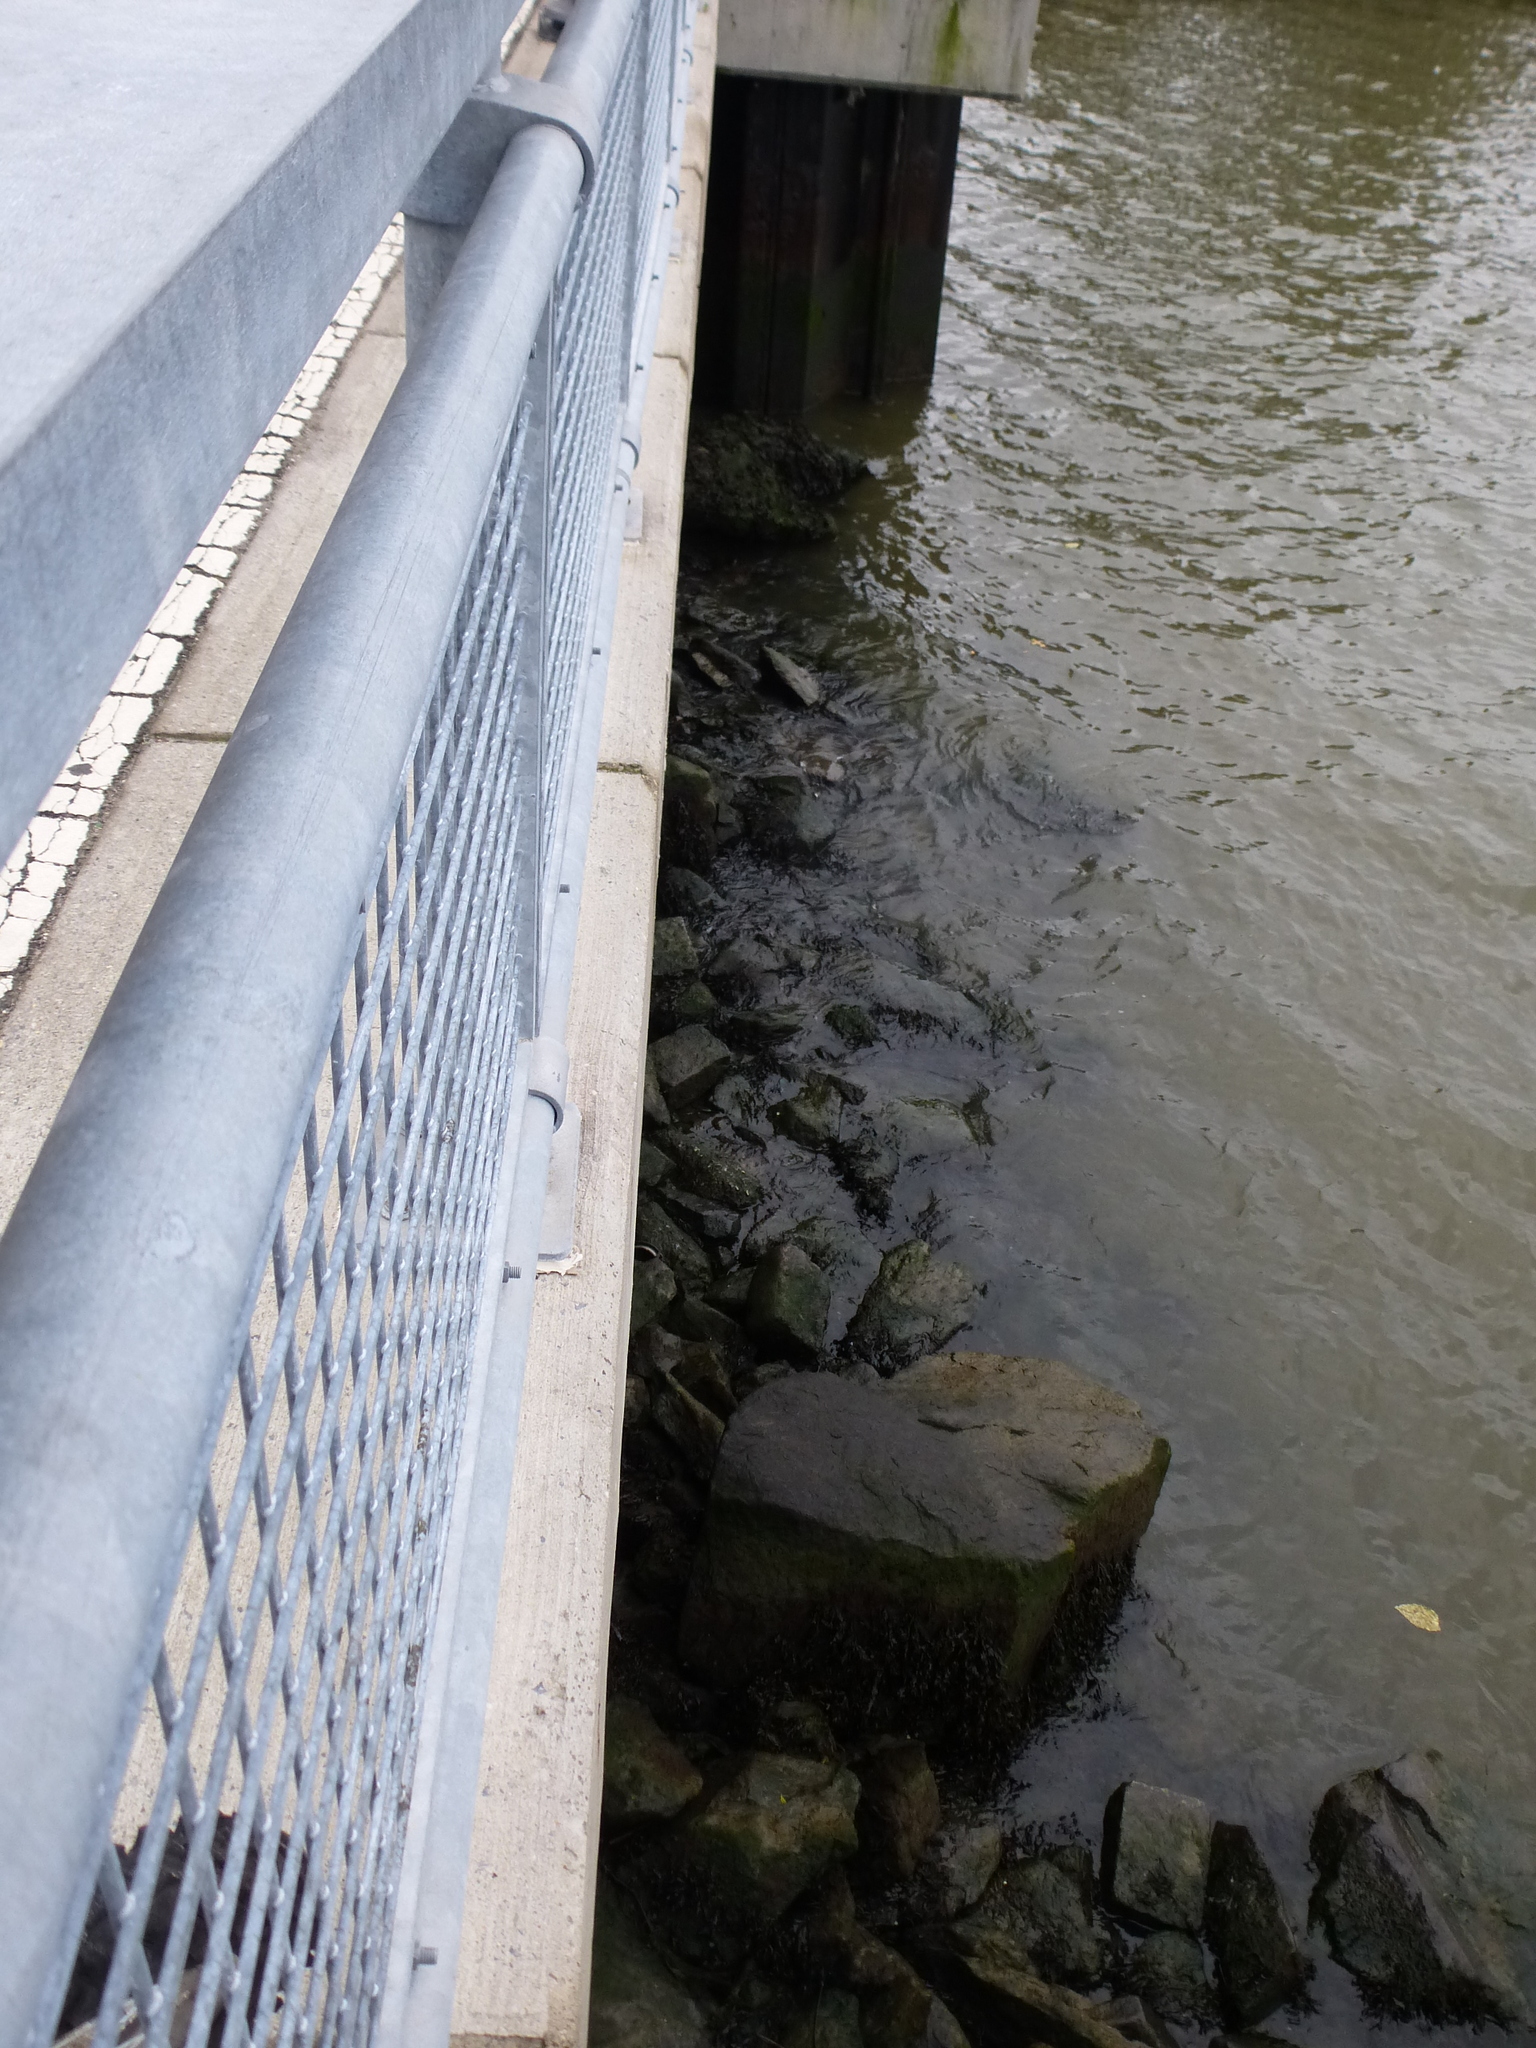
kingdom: Chromista
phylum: Ochrophyta
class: Phaeophyceae
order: Fucales
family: Fucaceae
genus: Fucus
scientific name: Fucus distichus
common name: Rockweed
